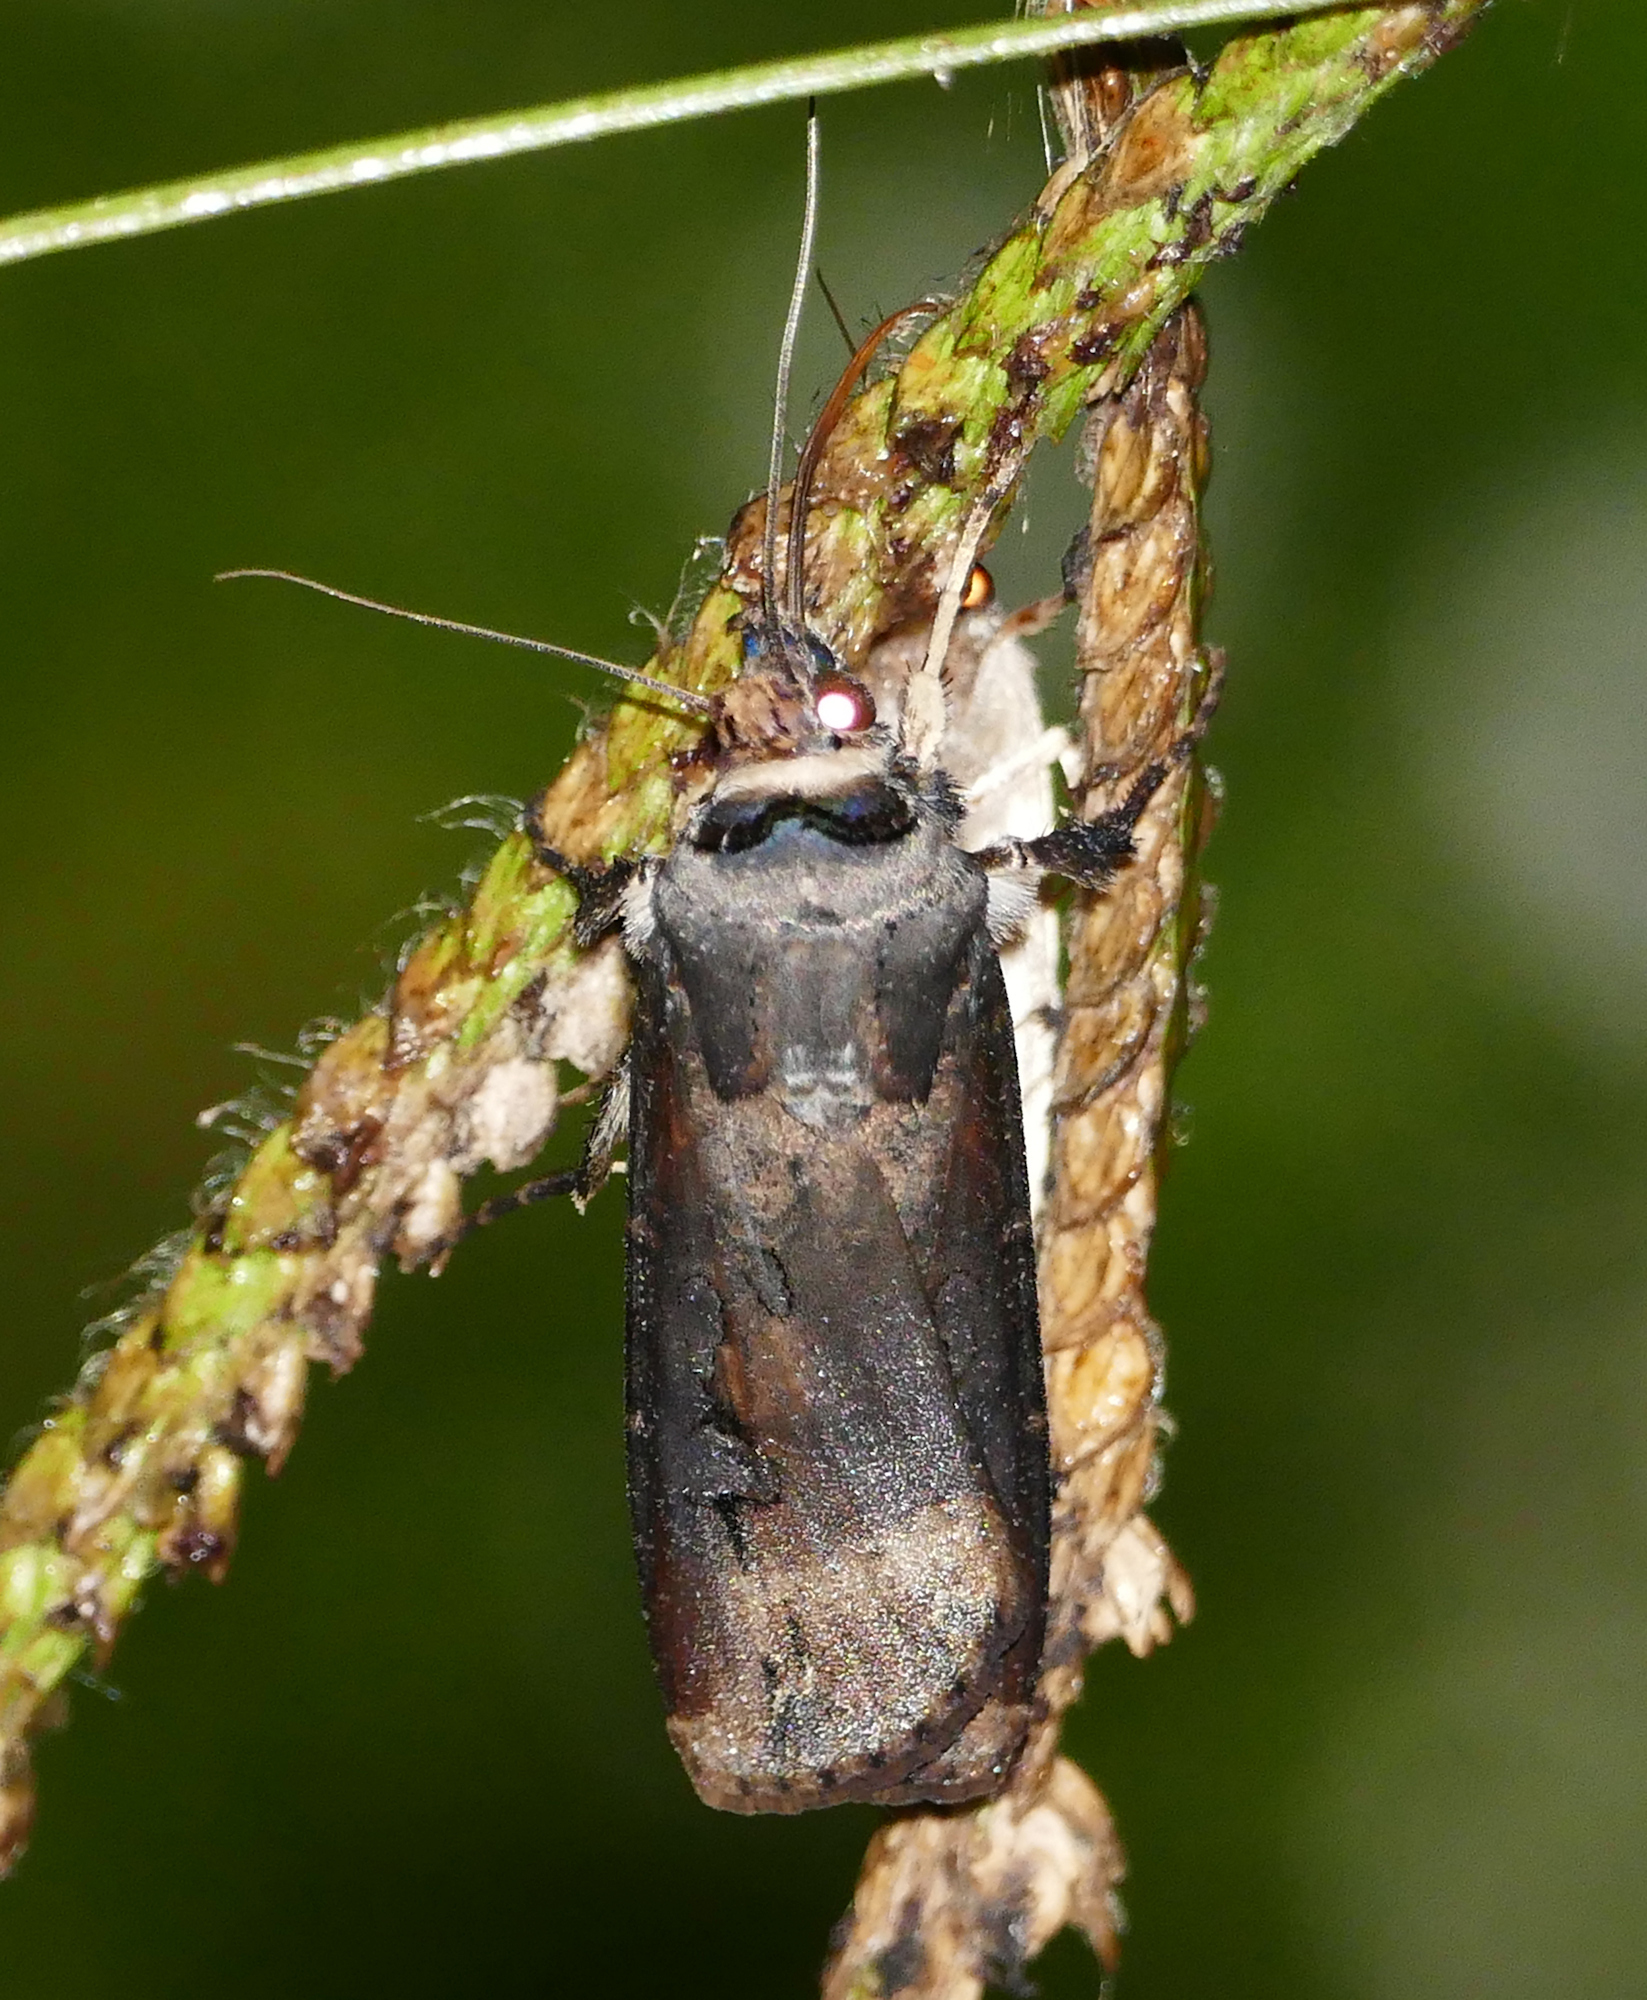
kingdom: Animalia
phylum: Arthropoda
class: Insecta
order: Lepidoptera
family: Noctuidae
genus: Agrotis
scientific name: Agrotis ipsilon
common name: Dark sword-grass
